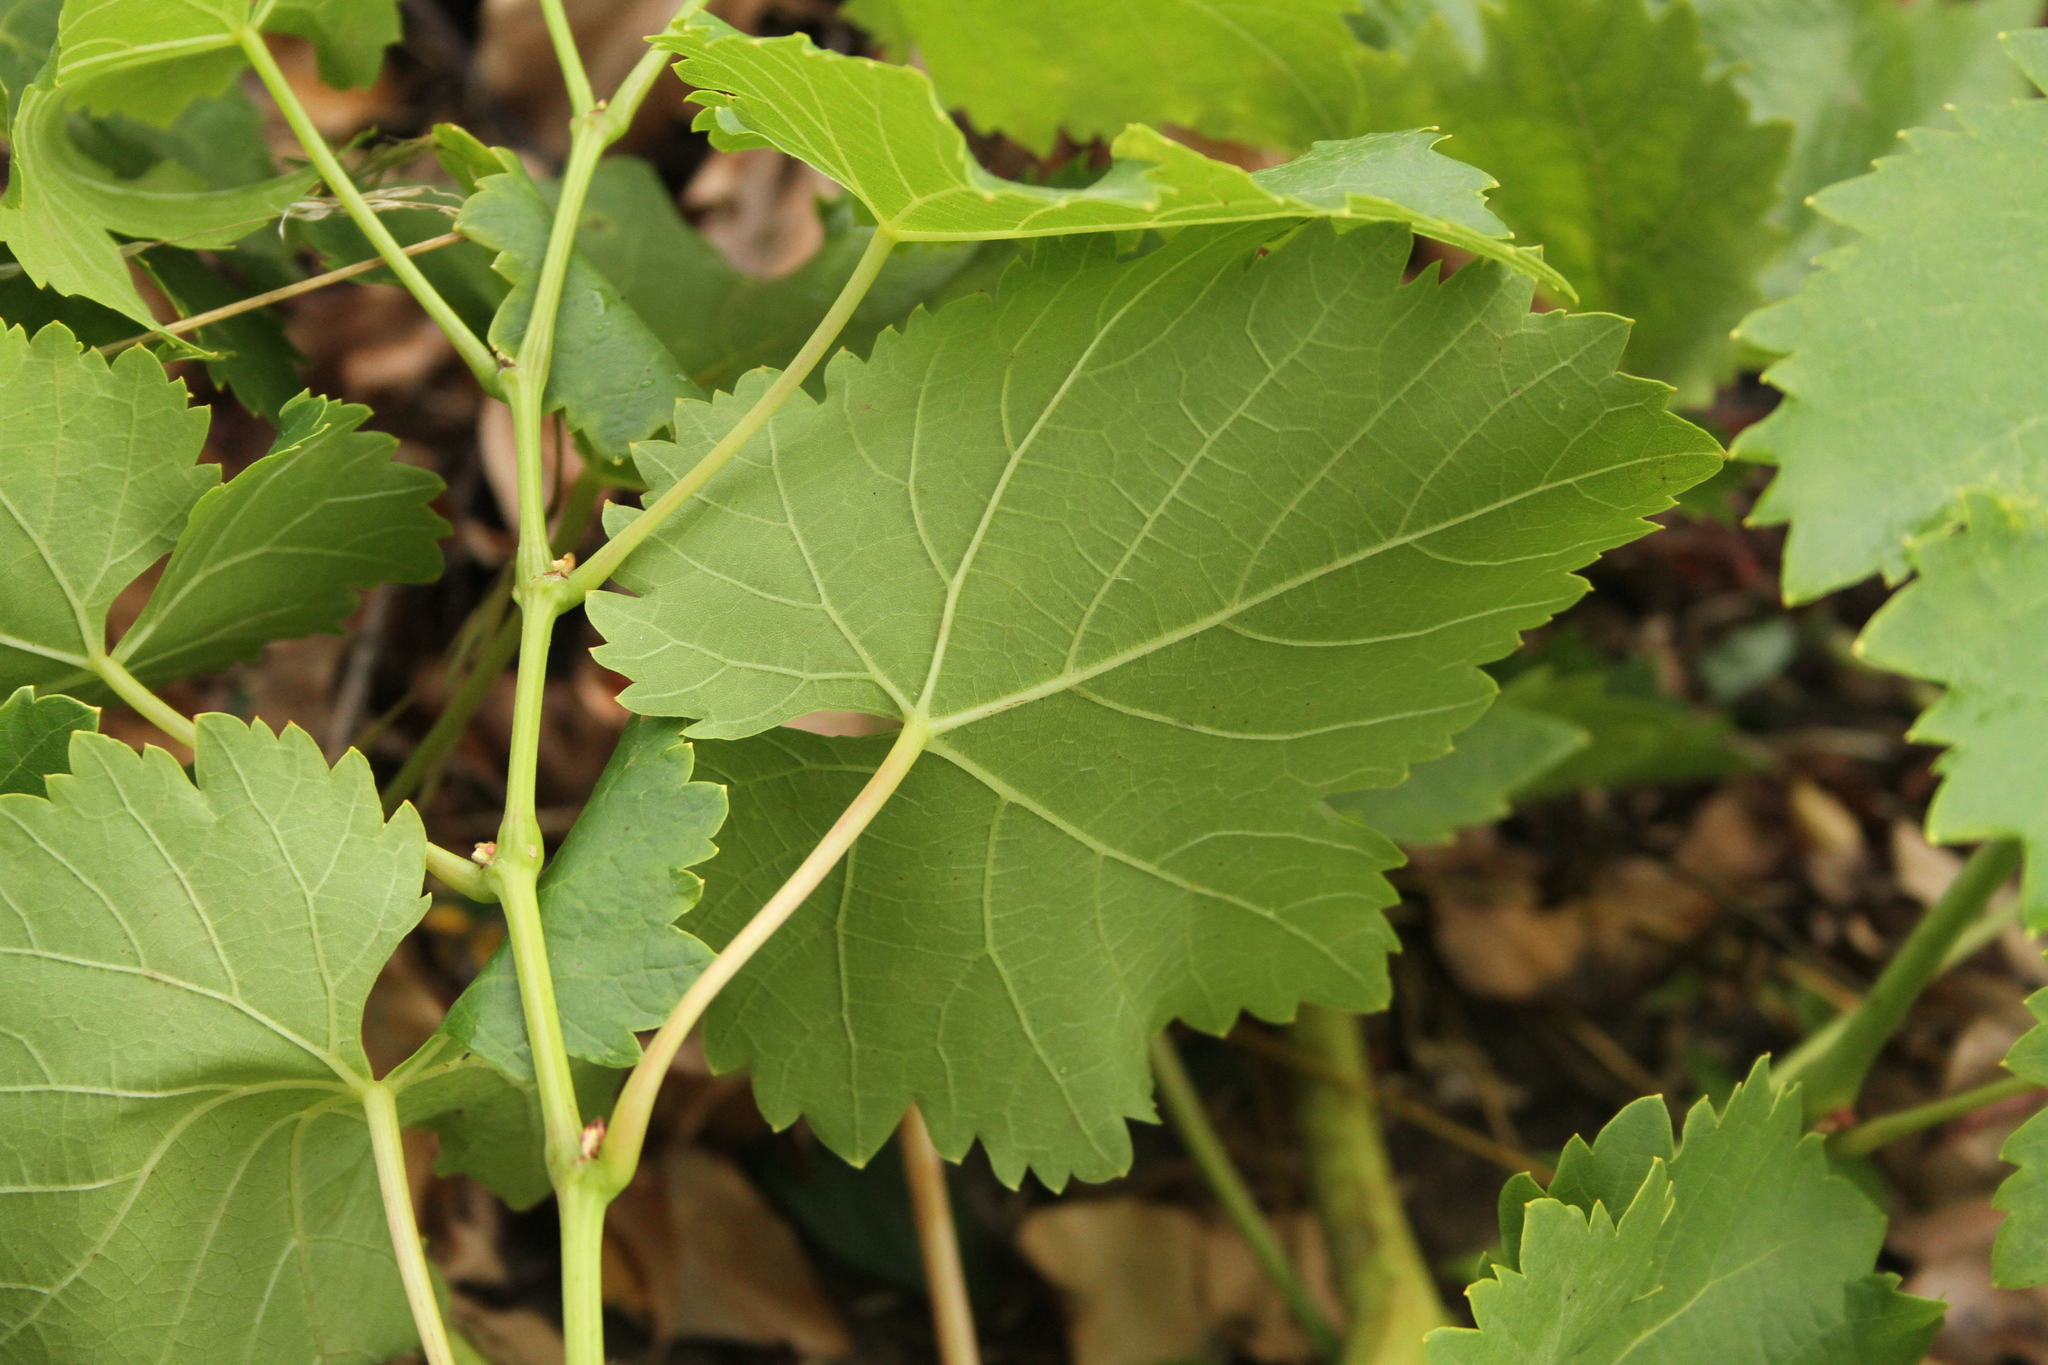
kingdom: Plantae
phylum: Tracheophyta
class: Magnoliopsida
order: Vitales
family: Vitaceae
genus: Vitis
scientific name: Vitis vinifera
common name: Grape-vine
